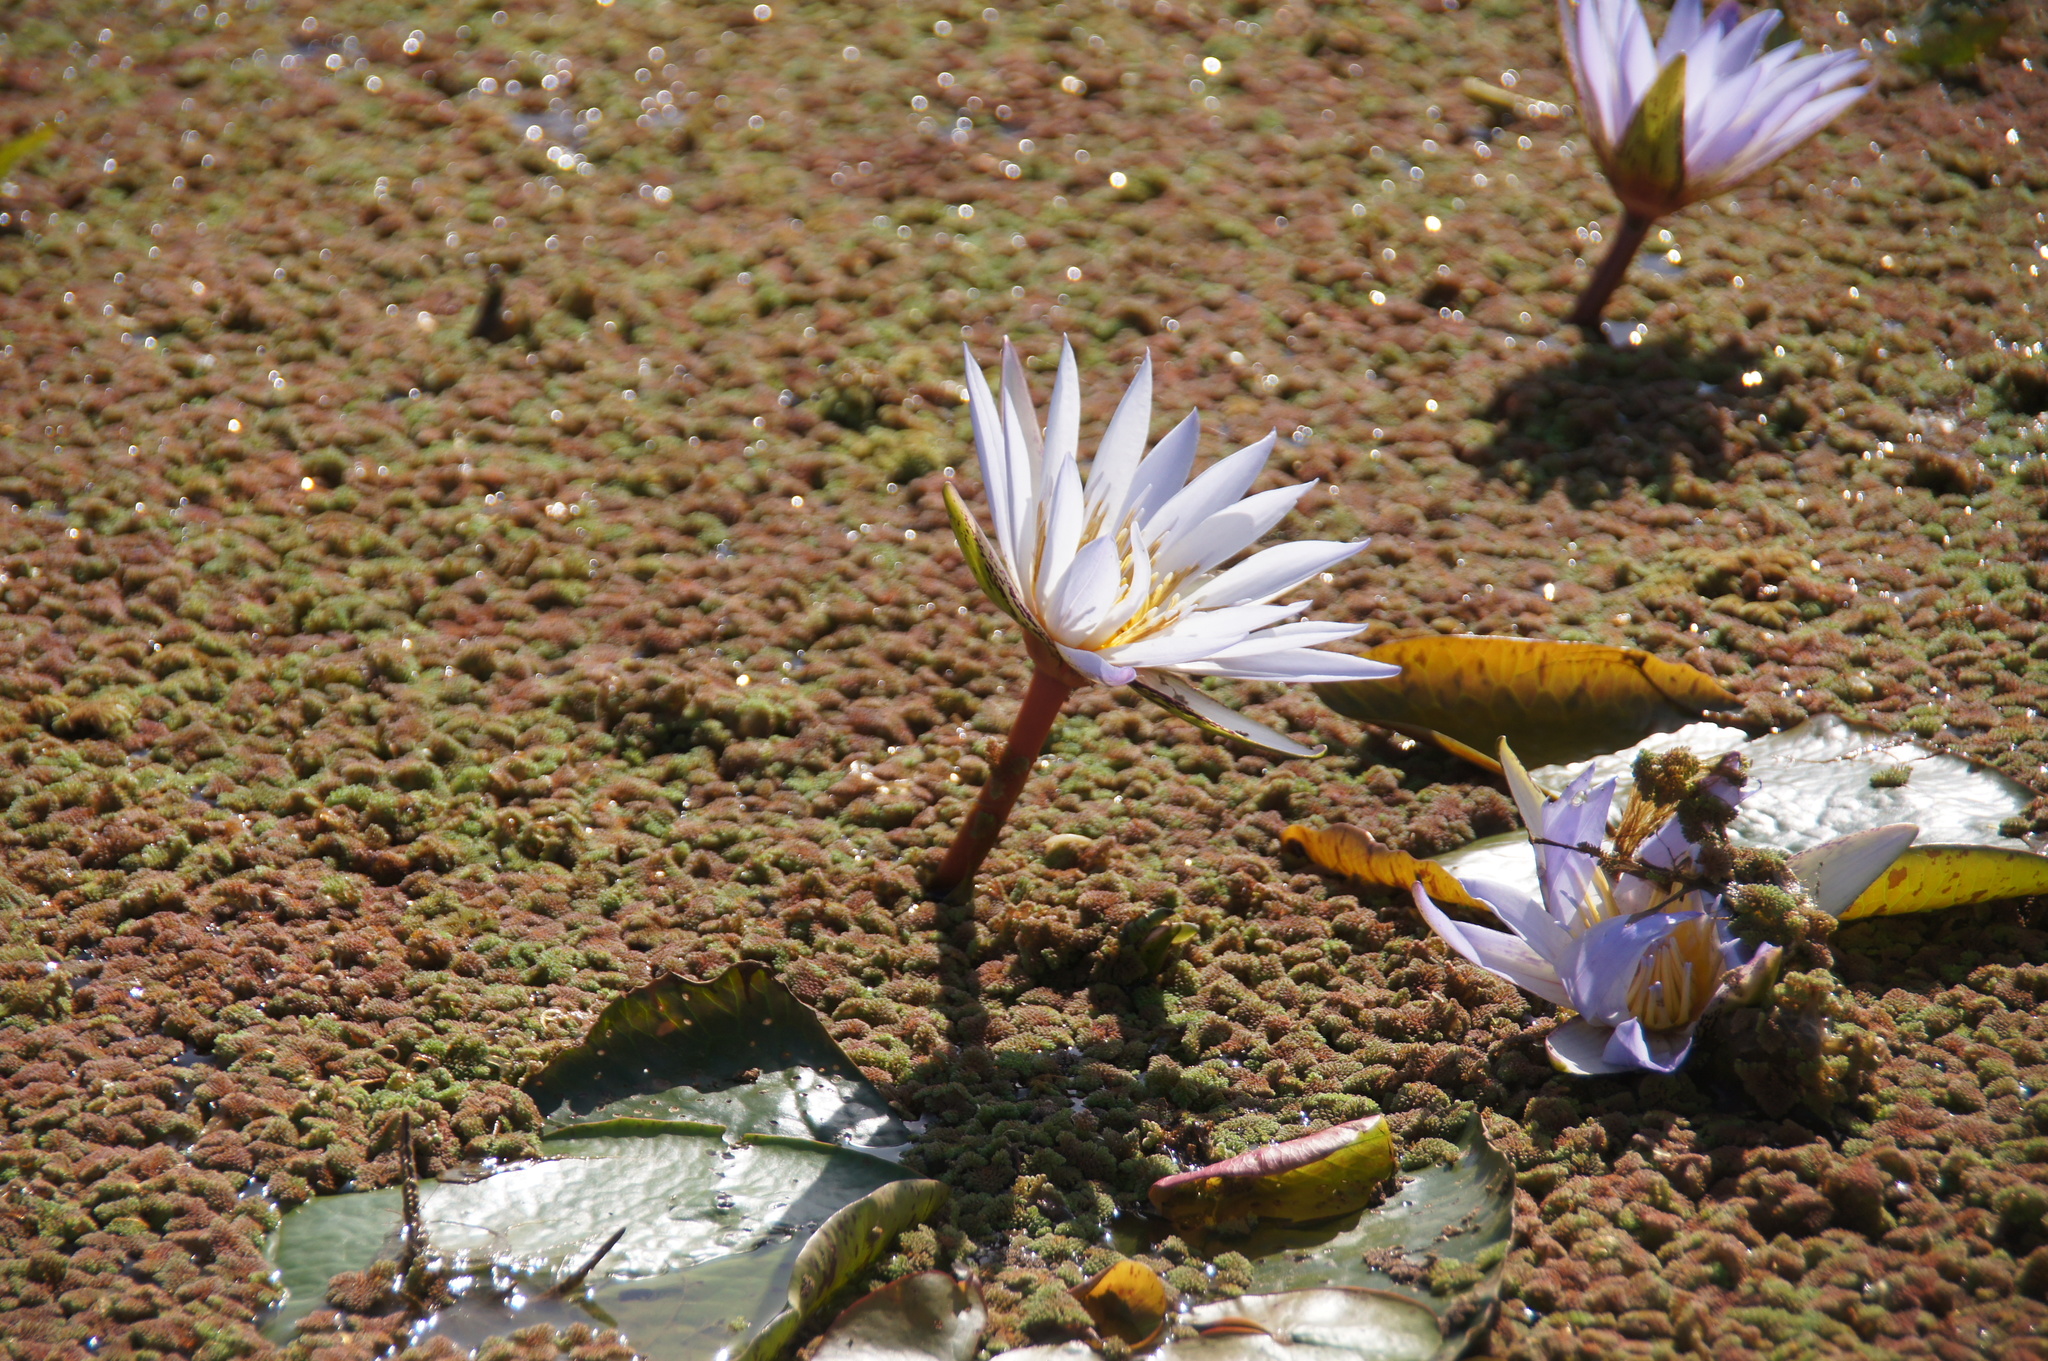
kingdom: Plantae
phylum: Tracheophyta
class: Magnoliopsida
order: Nymphaeales
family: Nymphaeaceae
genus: Nymphaea
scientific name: Nymphaea micrantha
